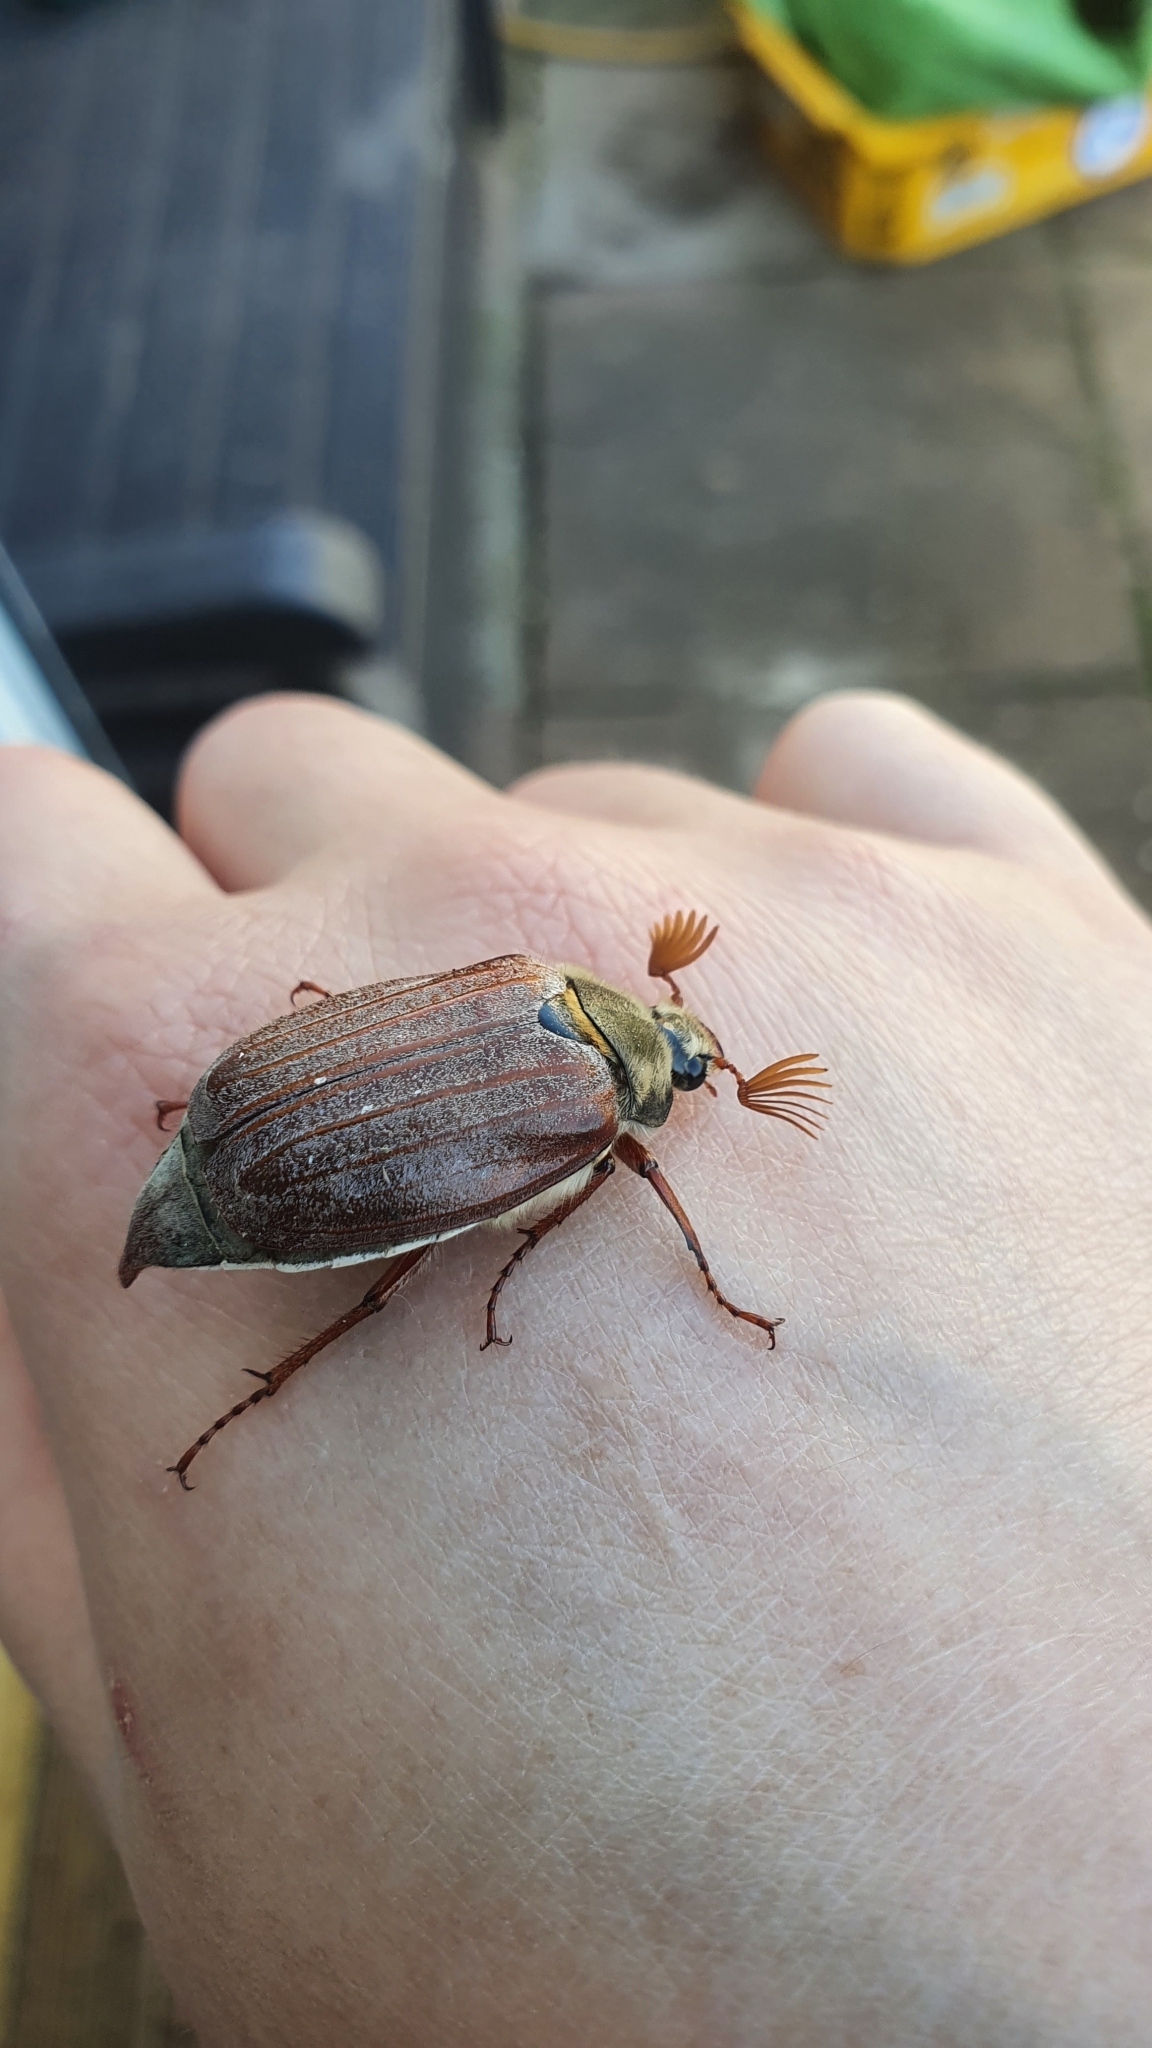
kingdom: Animalia
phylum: Arthropoda
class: Insecta
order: Coleoptera
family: Scarabaeidae
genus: Melolontha
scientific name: Melolontha melolontha
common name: Cockchafer maybeetle
